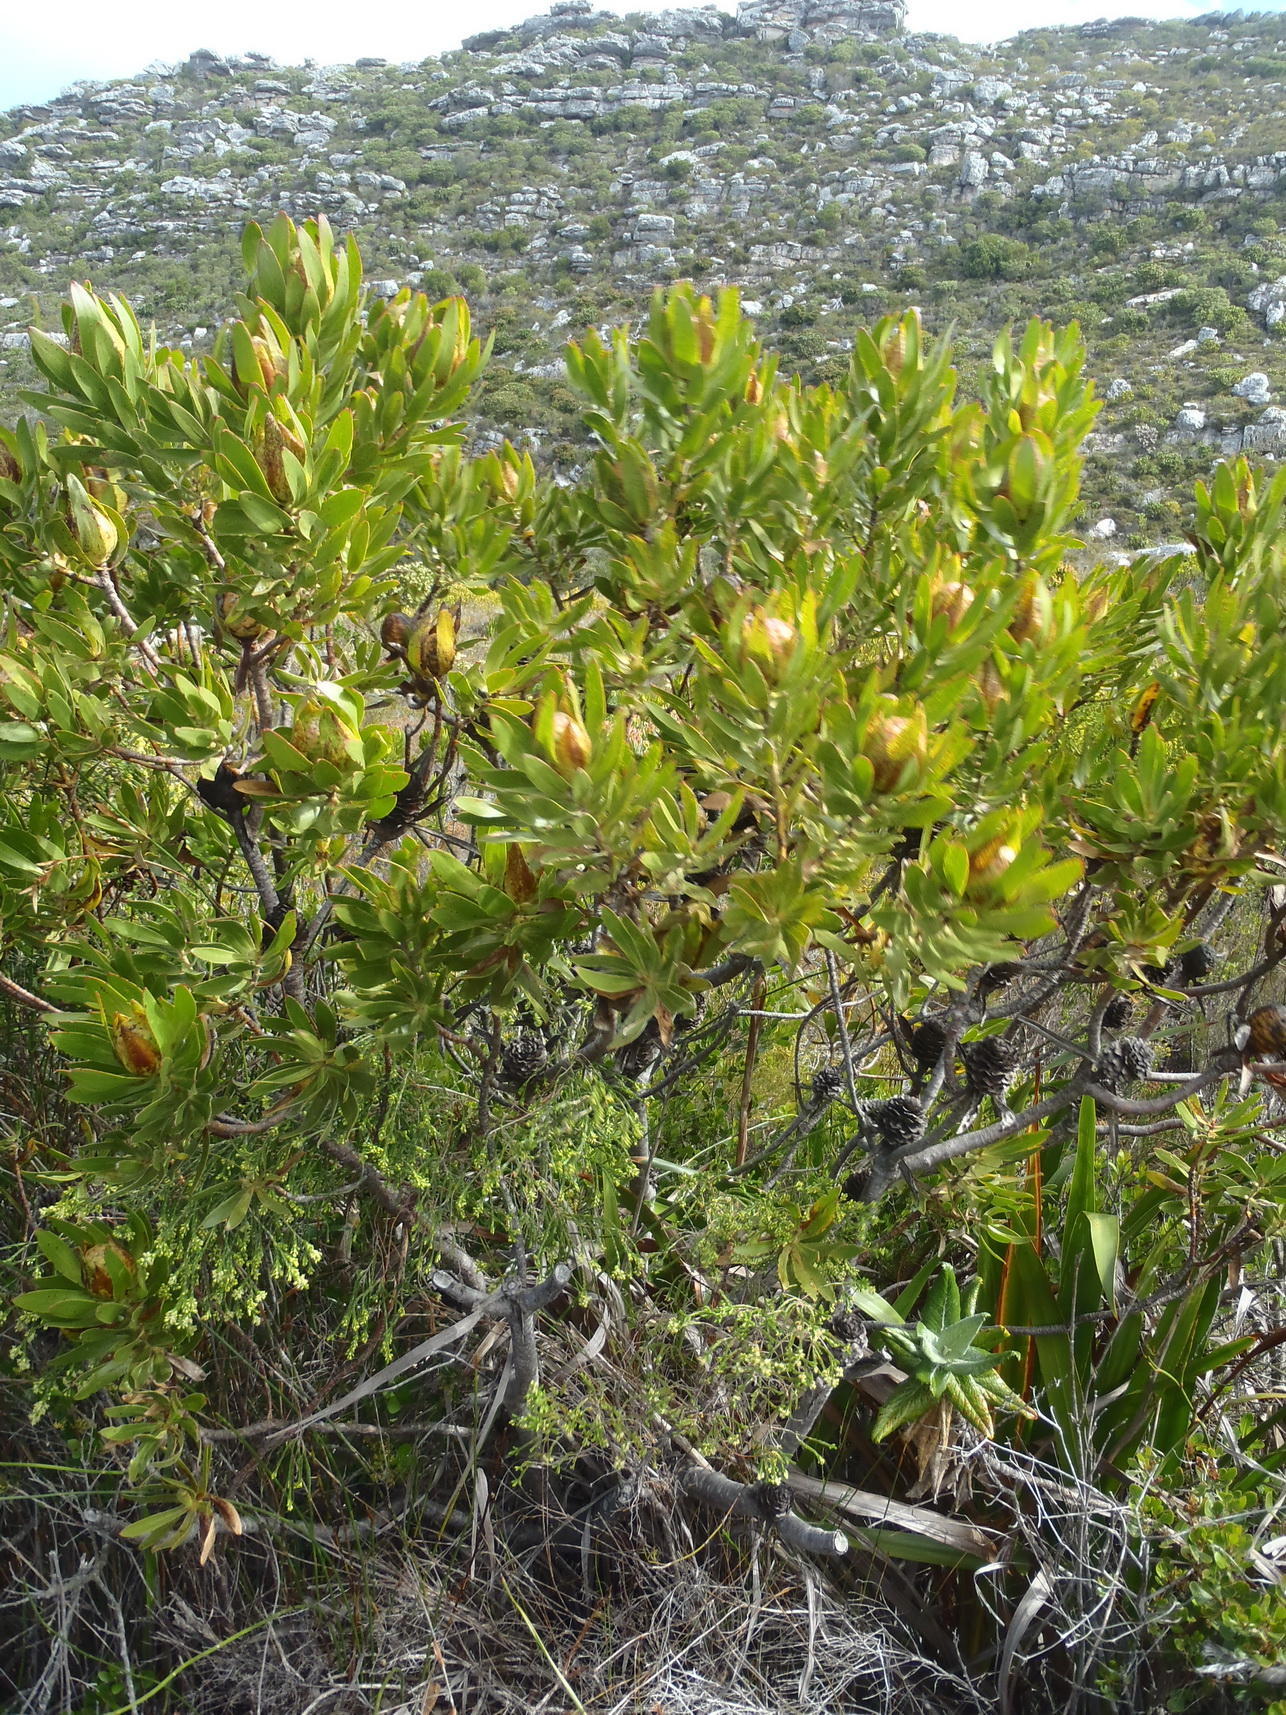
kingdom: Plantae
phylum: Tracheophyta
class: Magnoliopsida
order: Proteales
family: Proteaceae
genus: Leucadendron
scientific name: Leucadendron laureolum
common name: Golden sunshinebush
